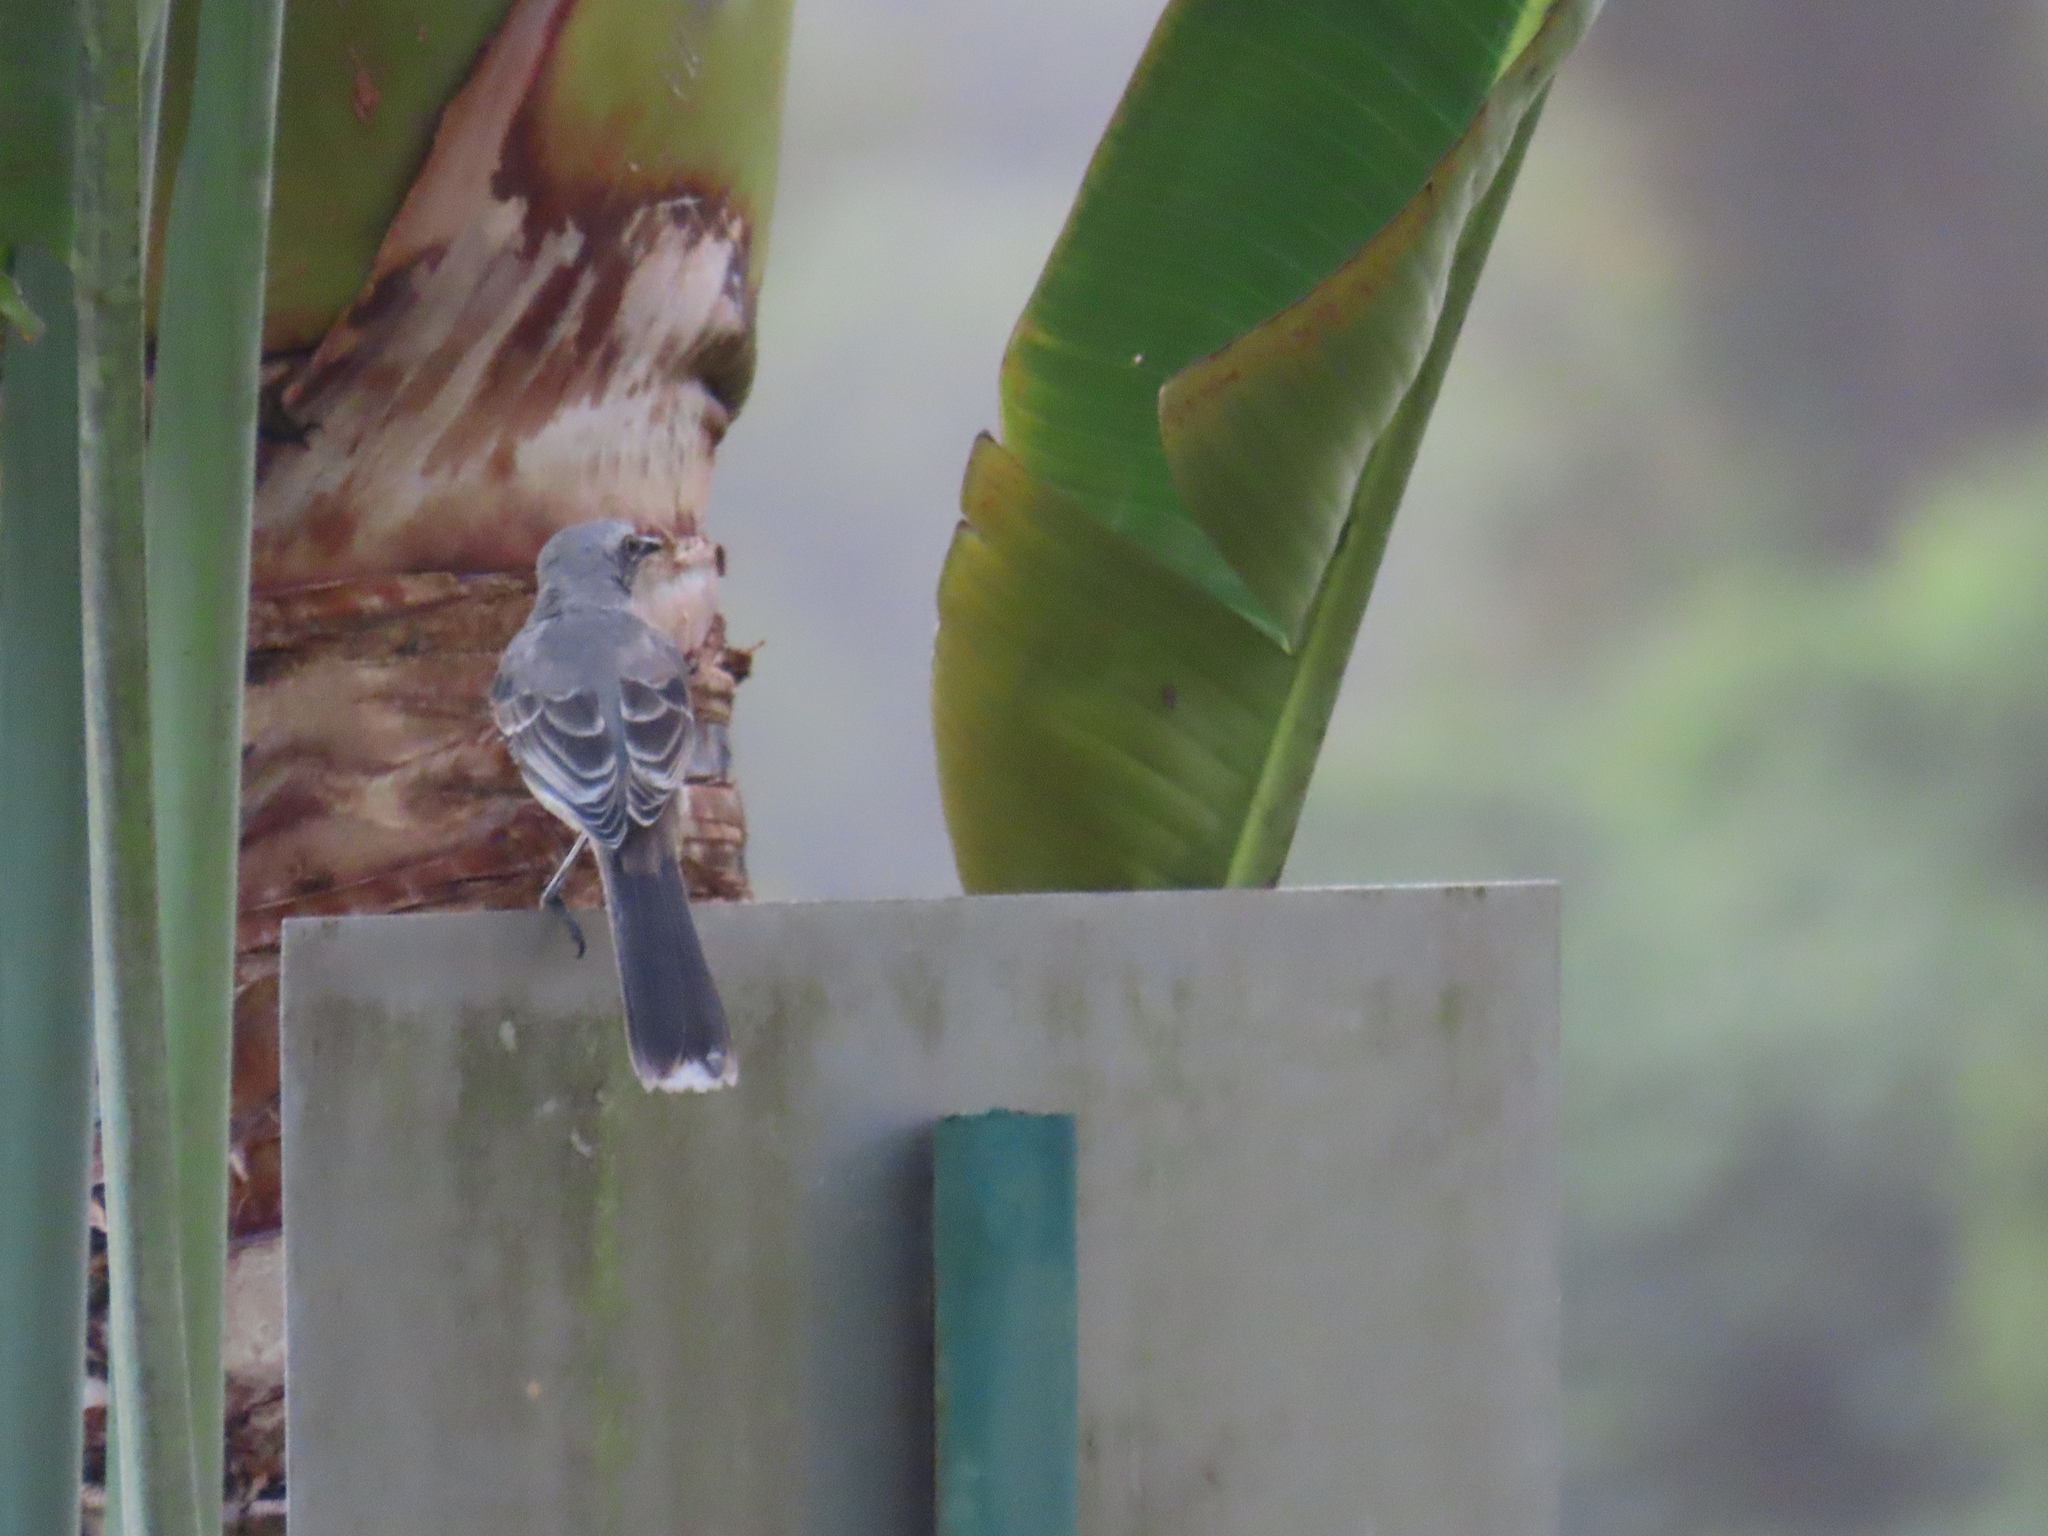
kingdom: Animalia
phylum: Chordata
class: Aves
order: Passeriformes
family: Mimidae
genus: Mimus
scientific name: Mimus gilvus
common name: Tropical mockingbird
